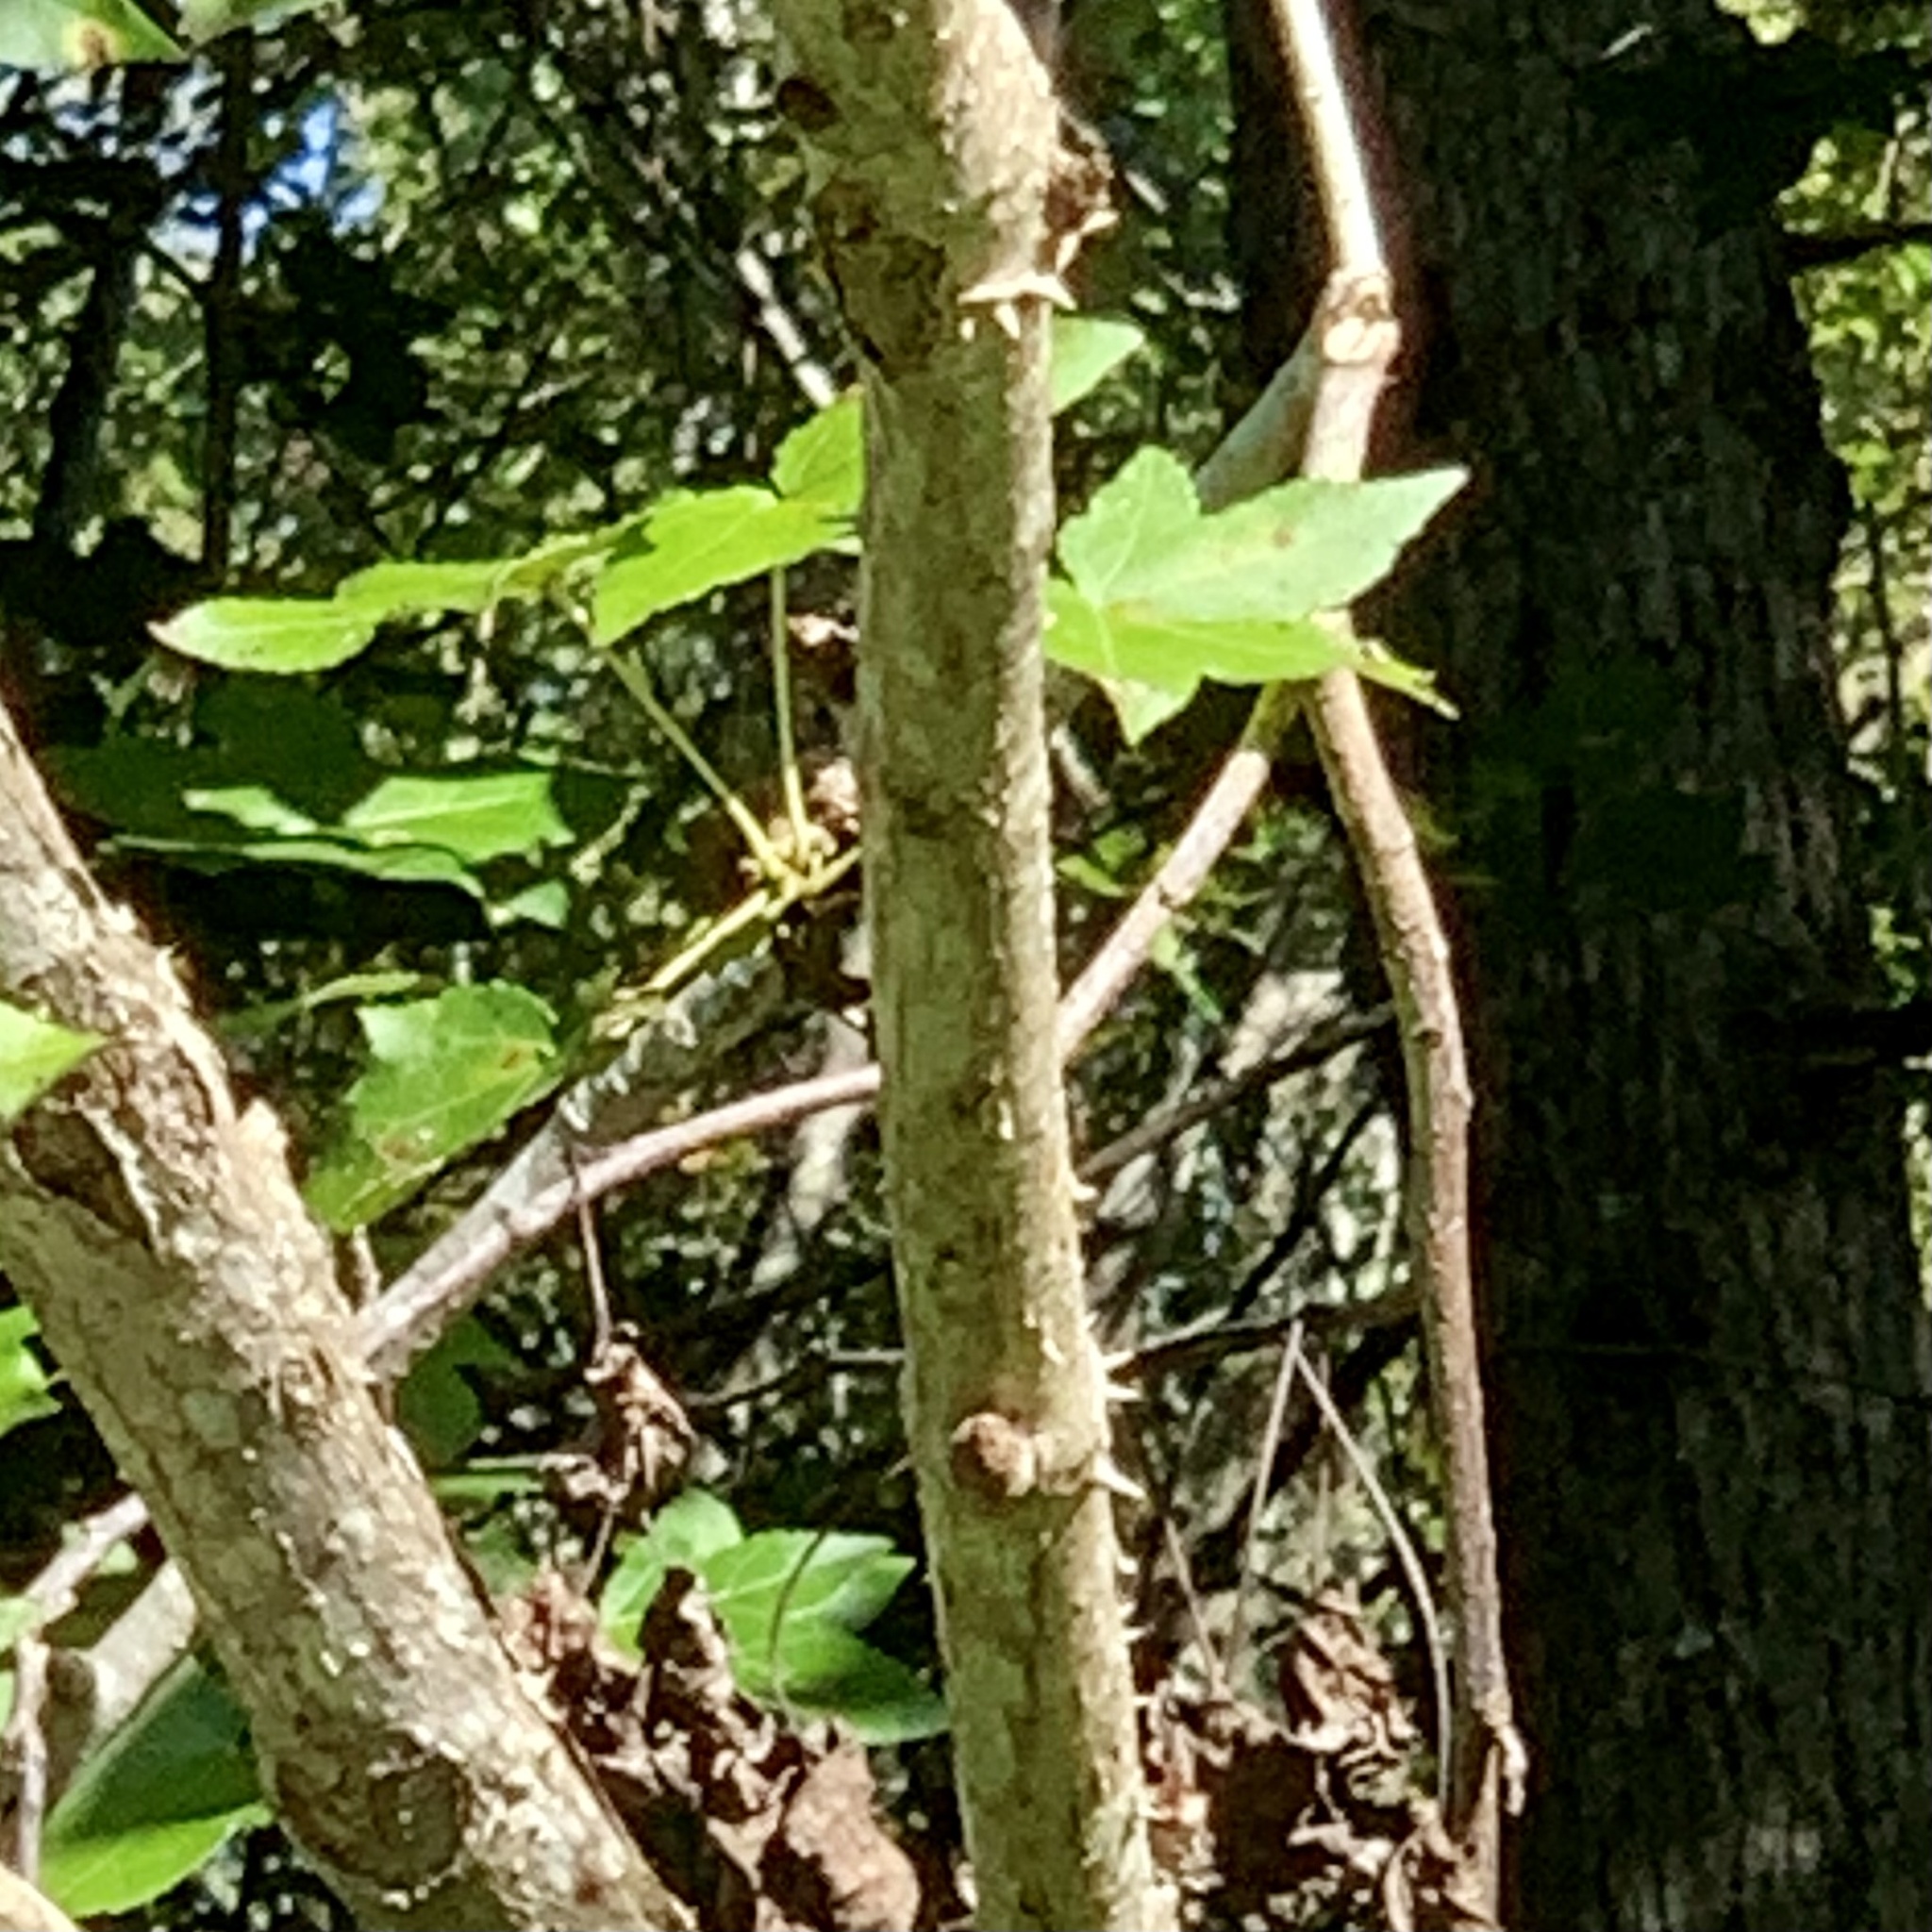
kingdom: Plantae
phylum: Tracheophyta
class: Magnoliopsida
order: Apiales
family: Araliaceae
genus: Aralia
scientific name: Aralia spinosa
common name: Hercules'-club
